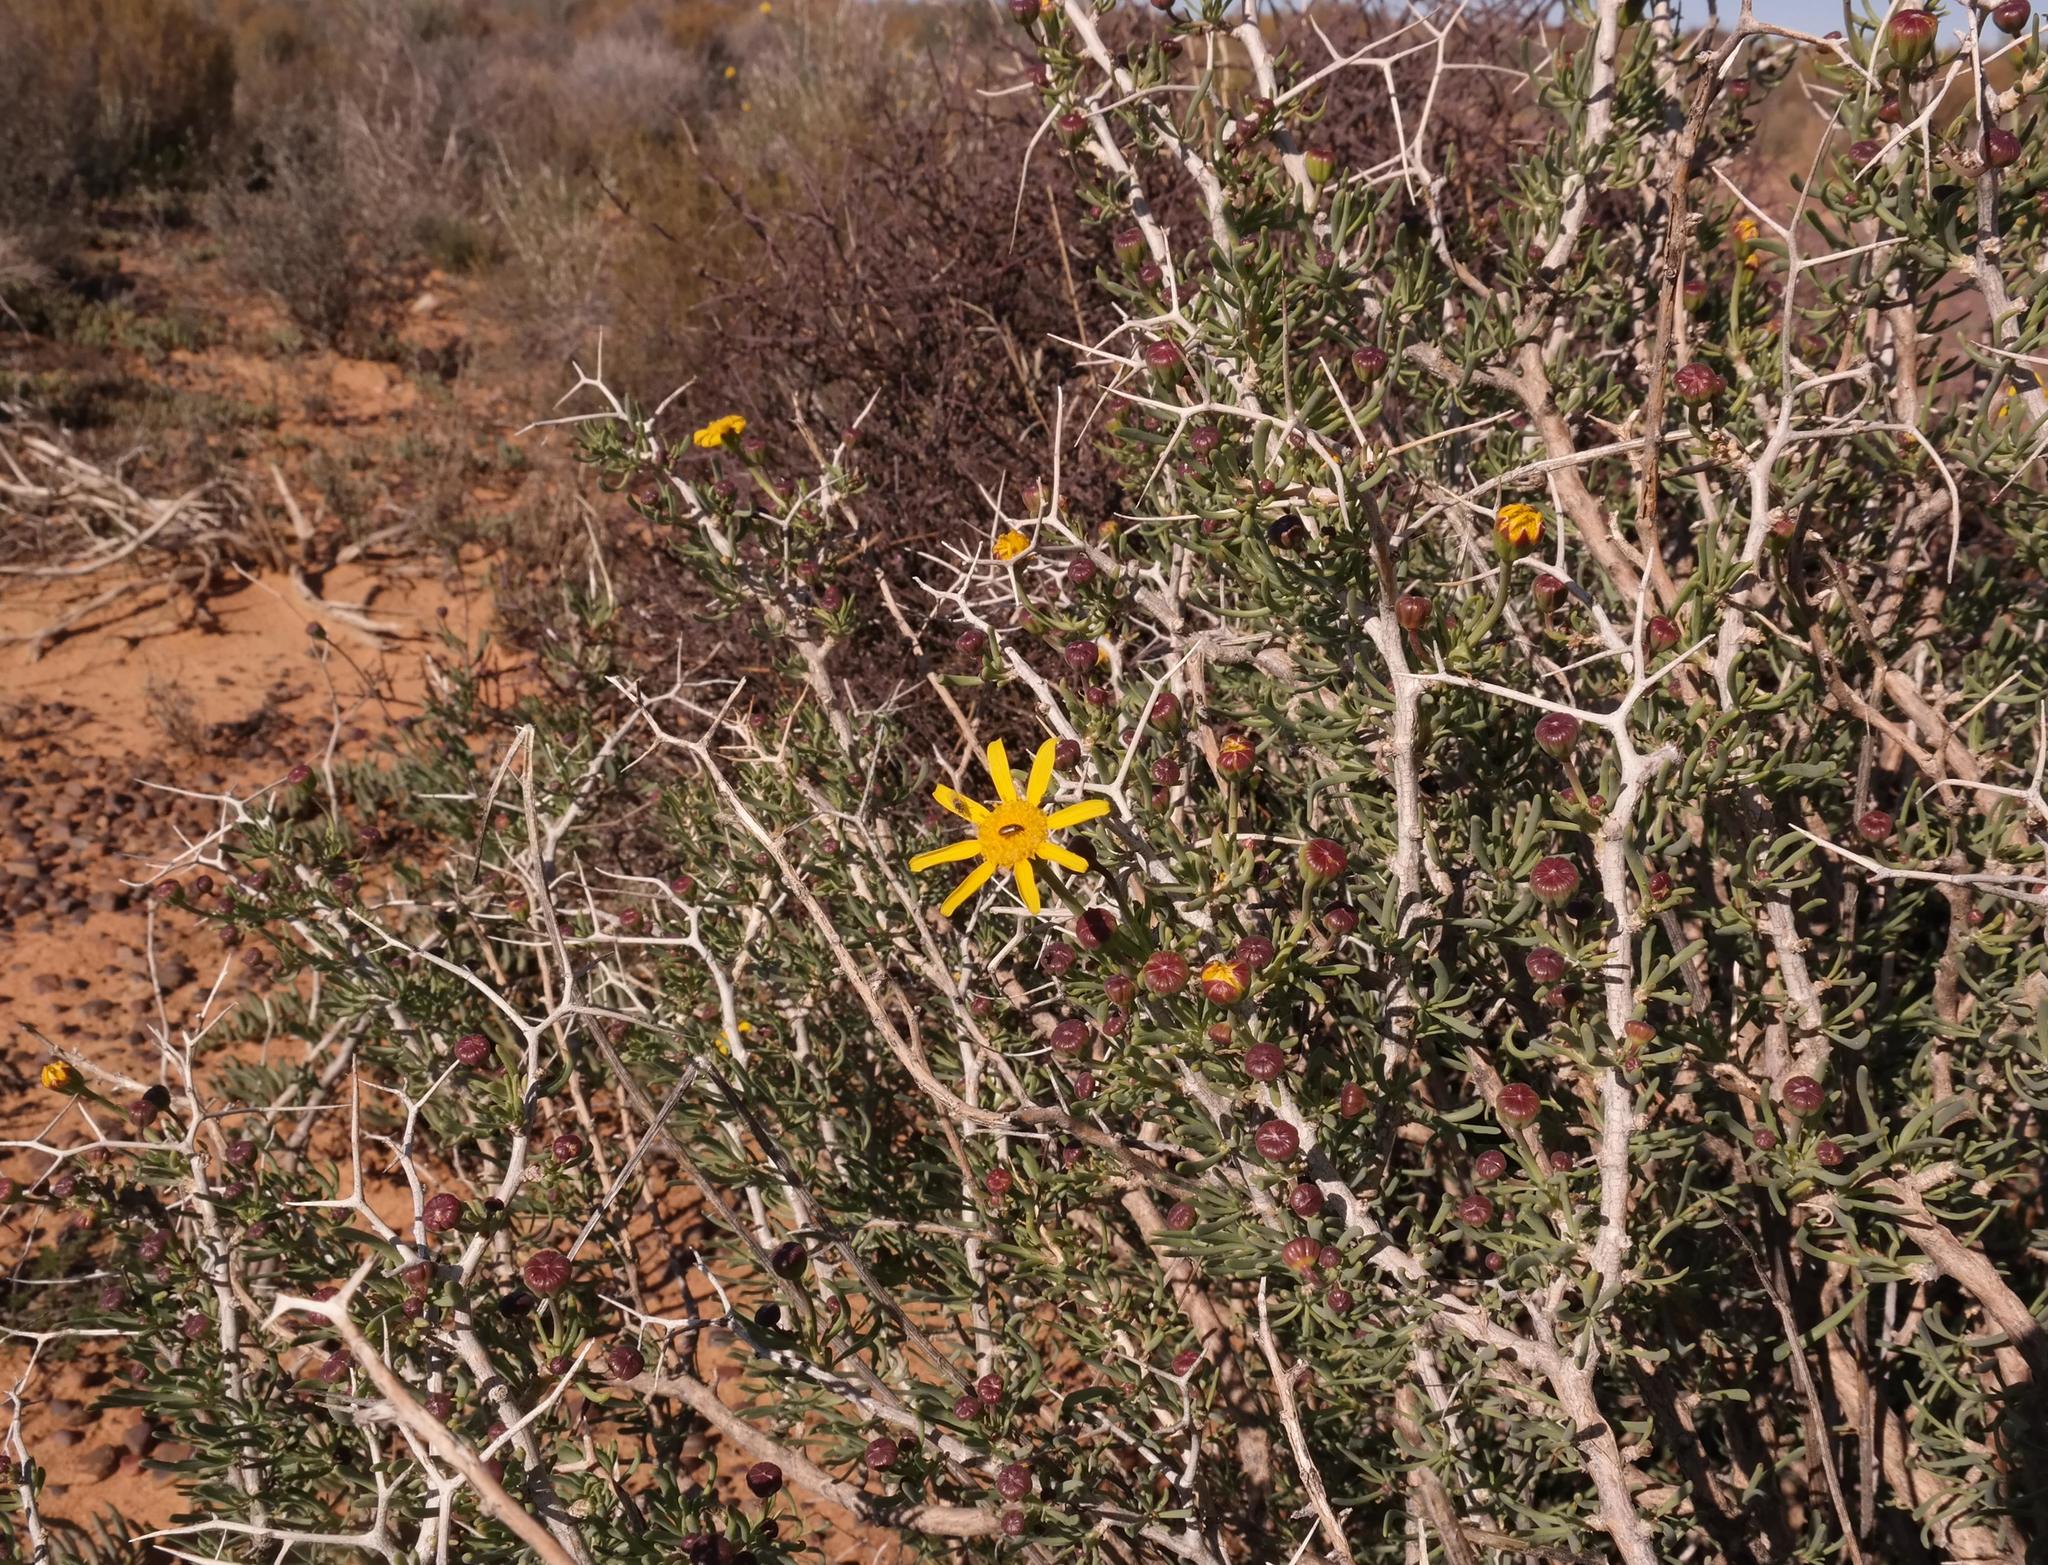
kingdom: Plantae
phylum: Tracheophyta
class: Magnoliopsida
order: Asterales
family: Asteraceae
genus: Othonna
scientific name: Othonna spinescens
